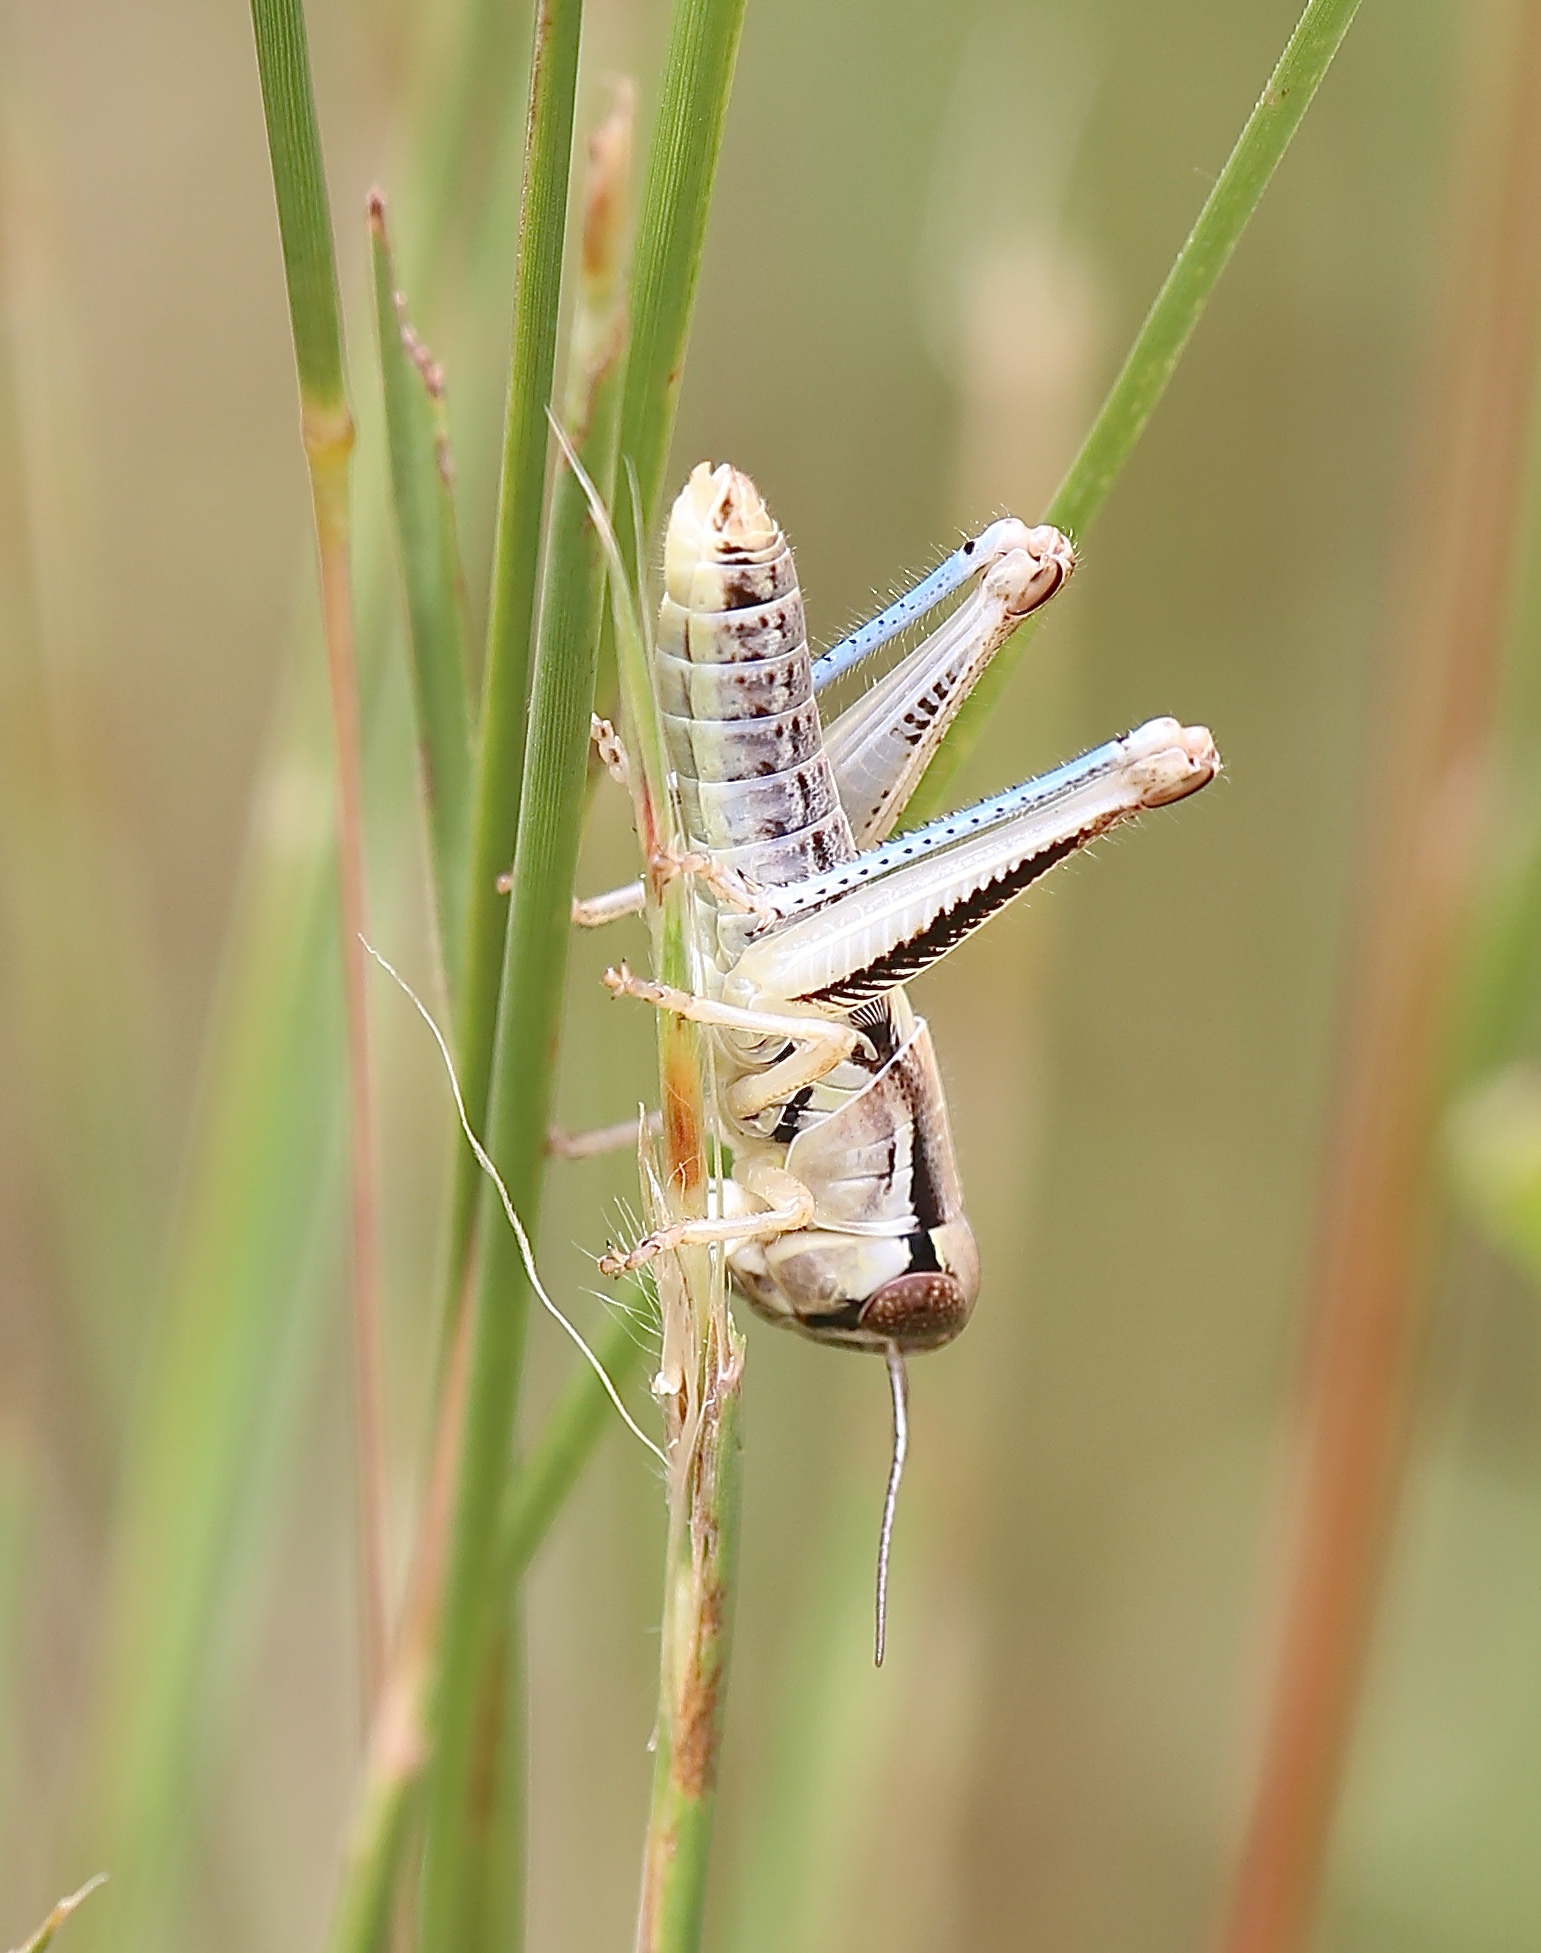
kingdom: Animalia
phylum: Arthropoda
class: Insecta
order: Orthoptera
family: Acrididae
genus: Phoetaliotes
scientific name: Phoetaliotes nebrascensis
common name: Large-headed grasshopper
